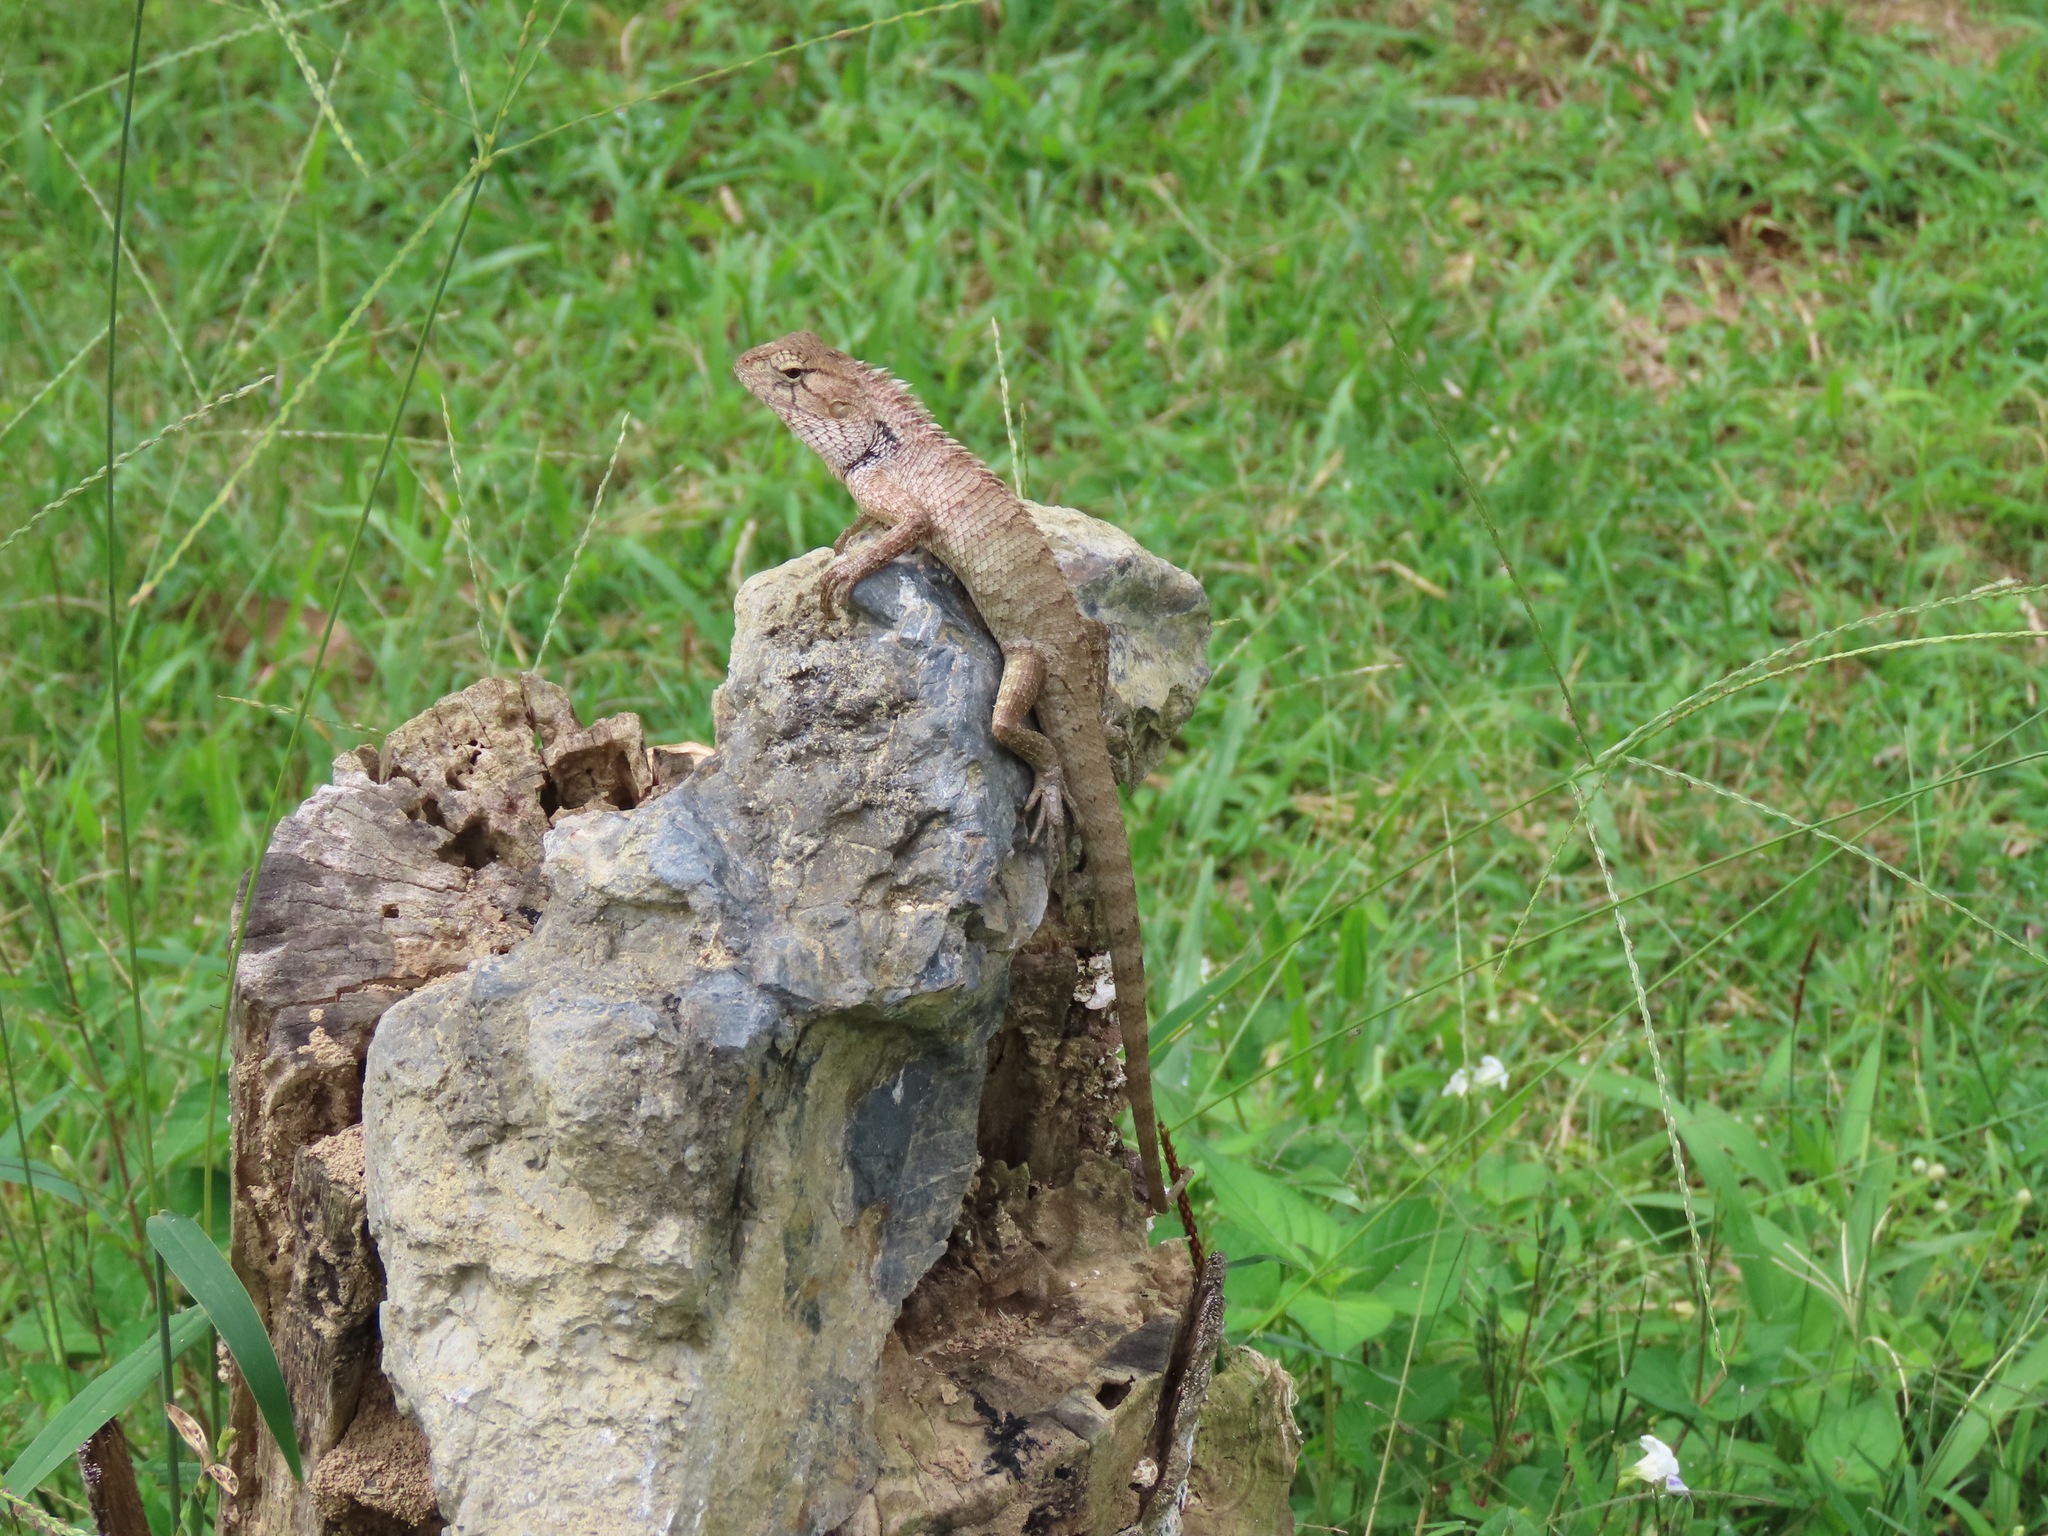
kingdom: Animalia
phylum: Chordata
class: Squamata
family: Agamidae
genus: Calotes
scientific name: Calotes versicolor
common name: Oriental garden lizard
